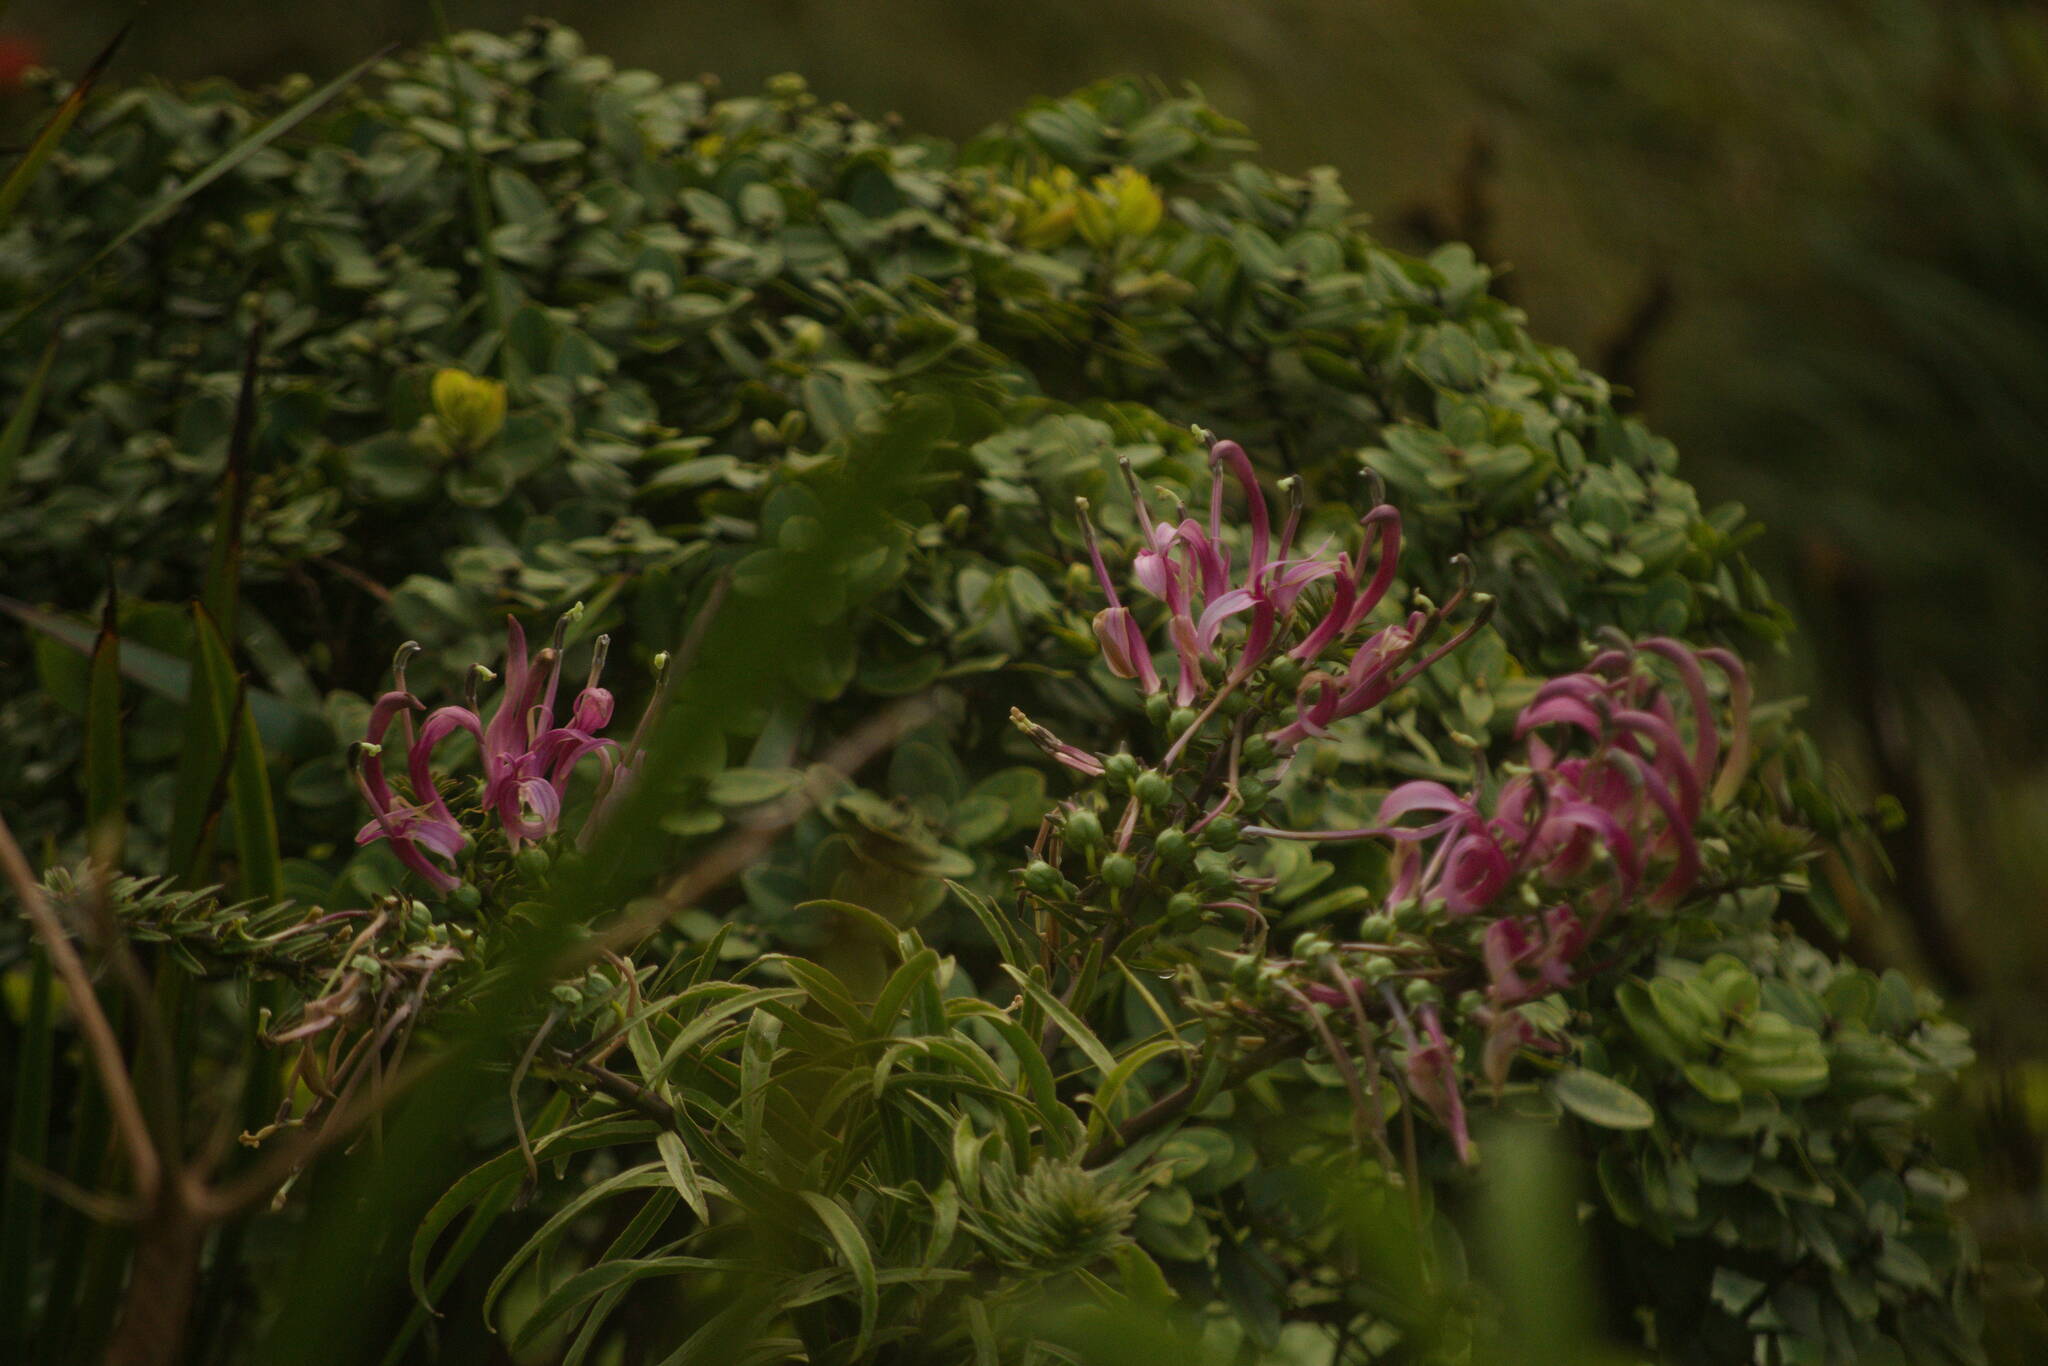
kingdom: Plantae
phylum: Tracheophyta
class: Magnoliopsida
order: Asterales
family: Campanulaceae
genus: Trematolobelia
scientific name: Trematolobelia macrostachys
